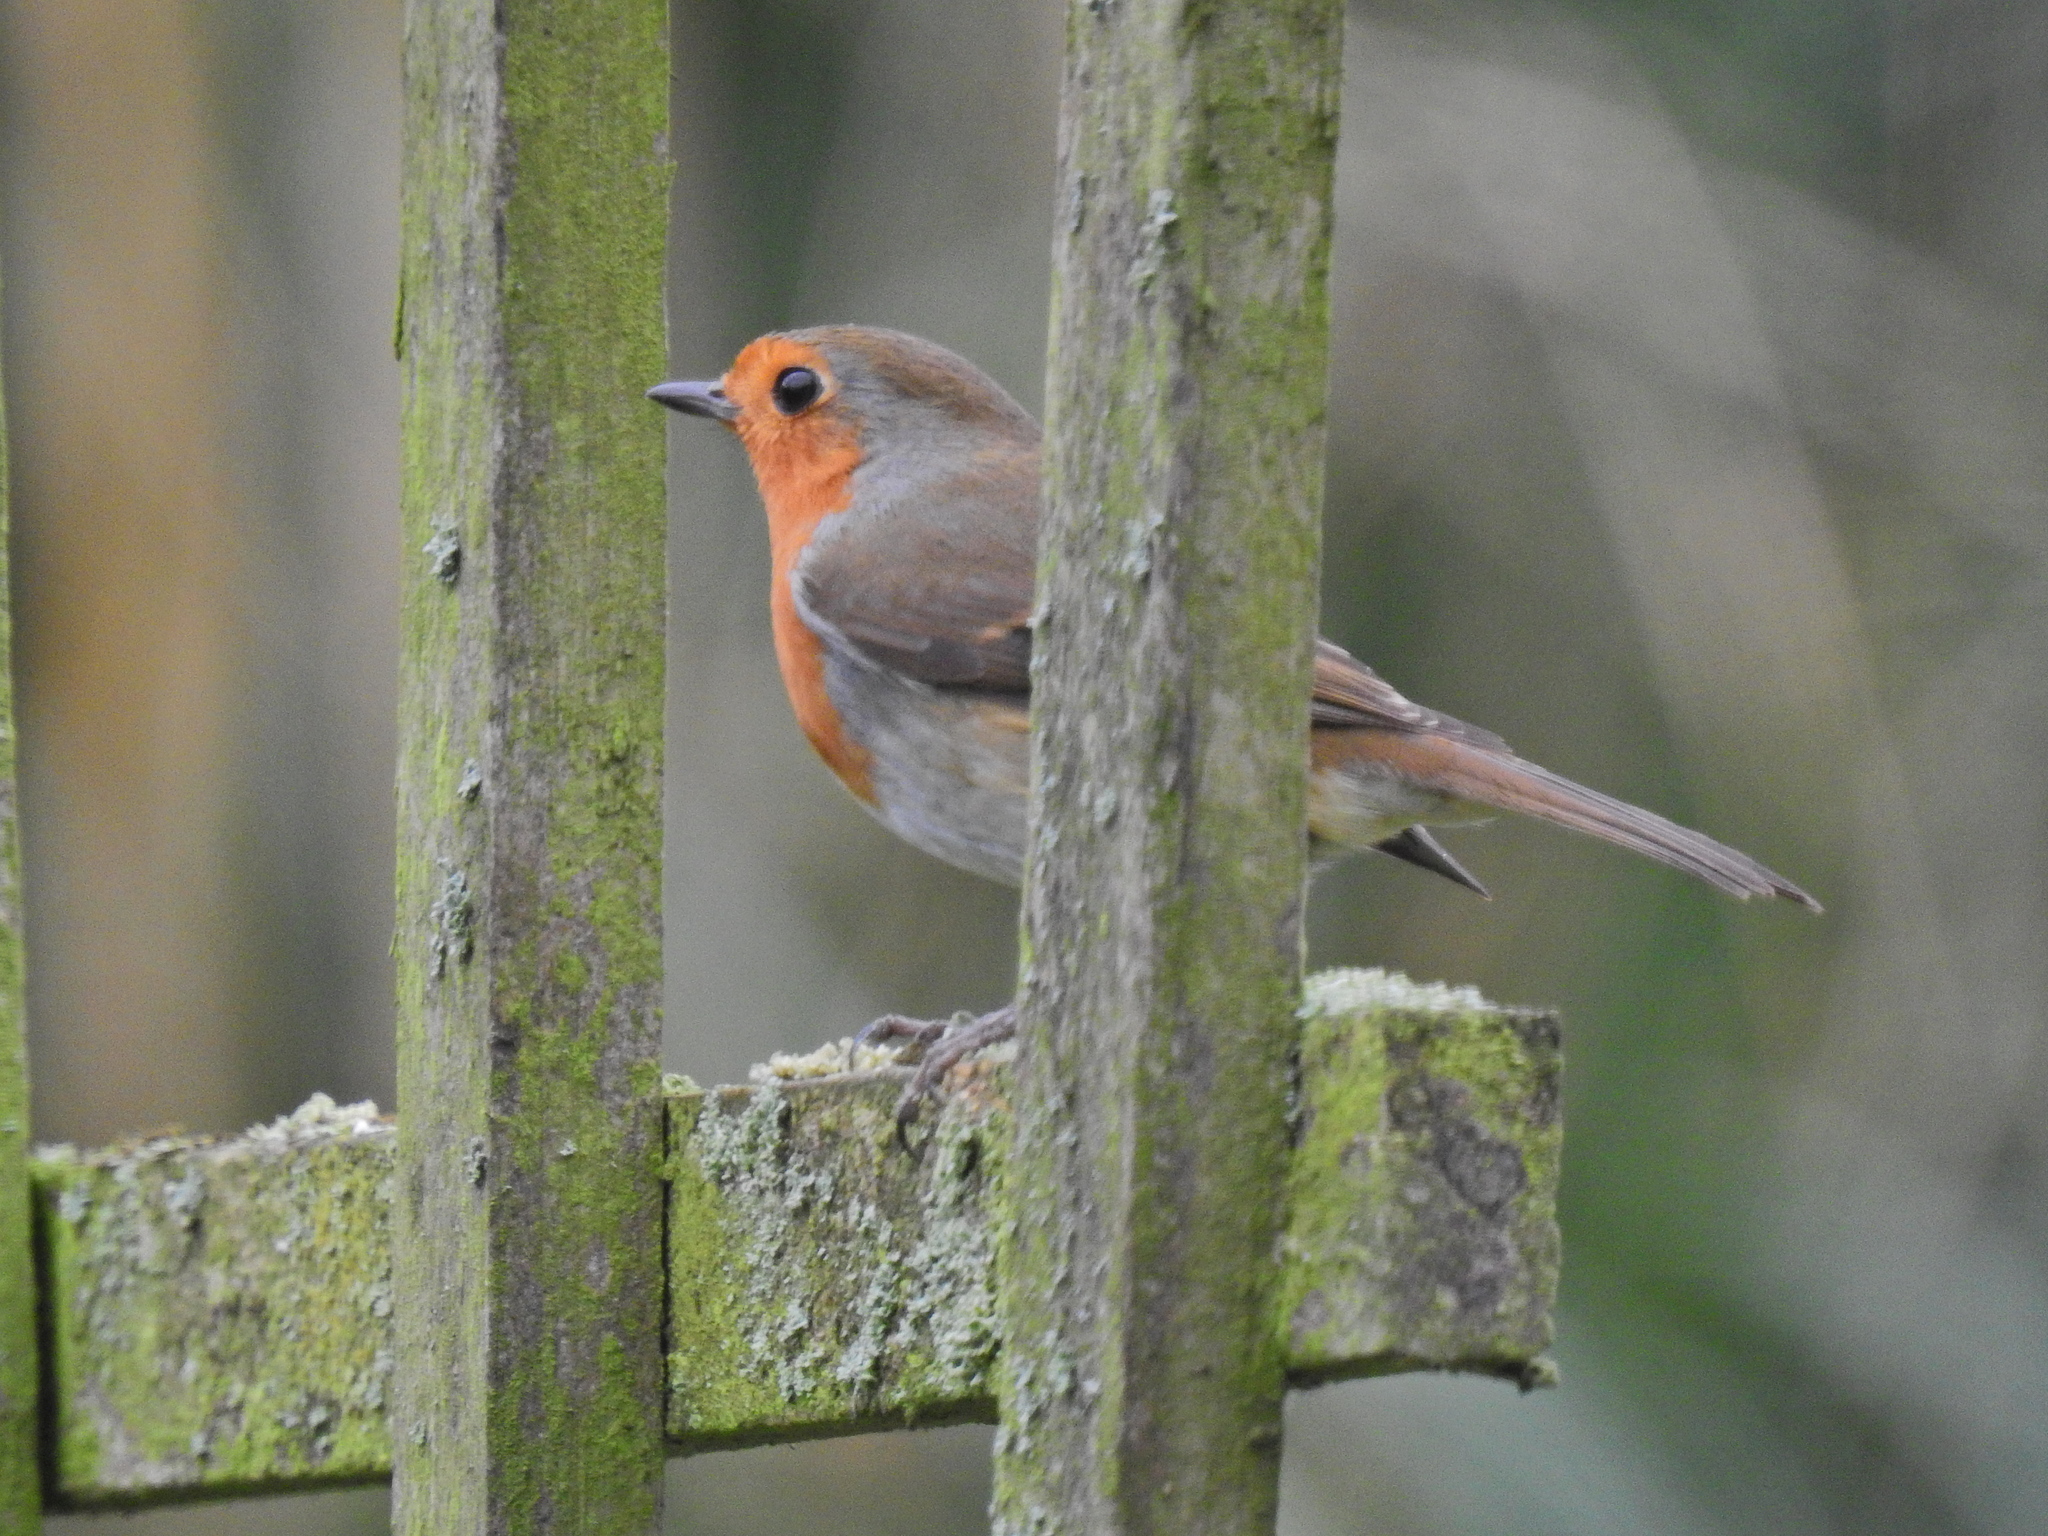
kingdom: Animalia
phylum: Chordata
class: Aves
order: Passeriformes
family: Muscicapidae
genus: Erithacus
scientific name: Erithacus rubecula
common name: European robin
